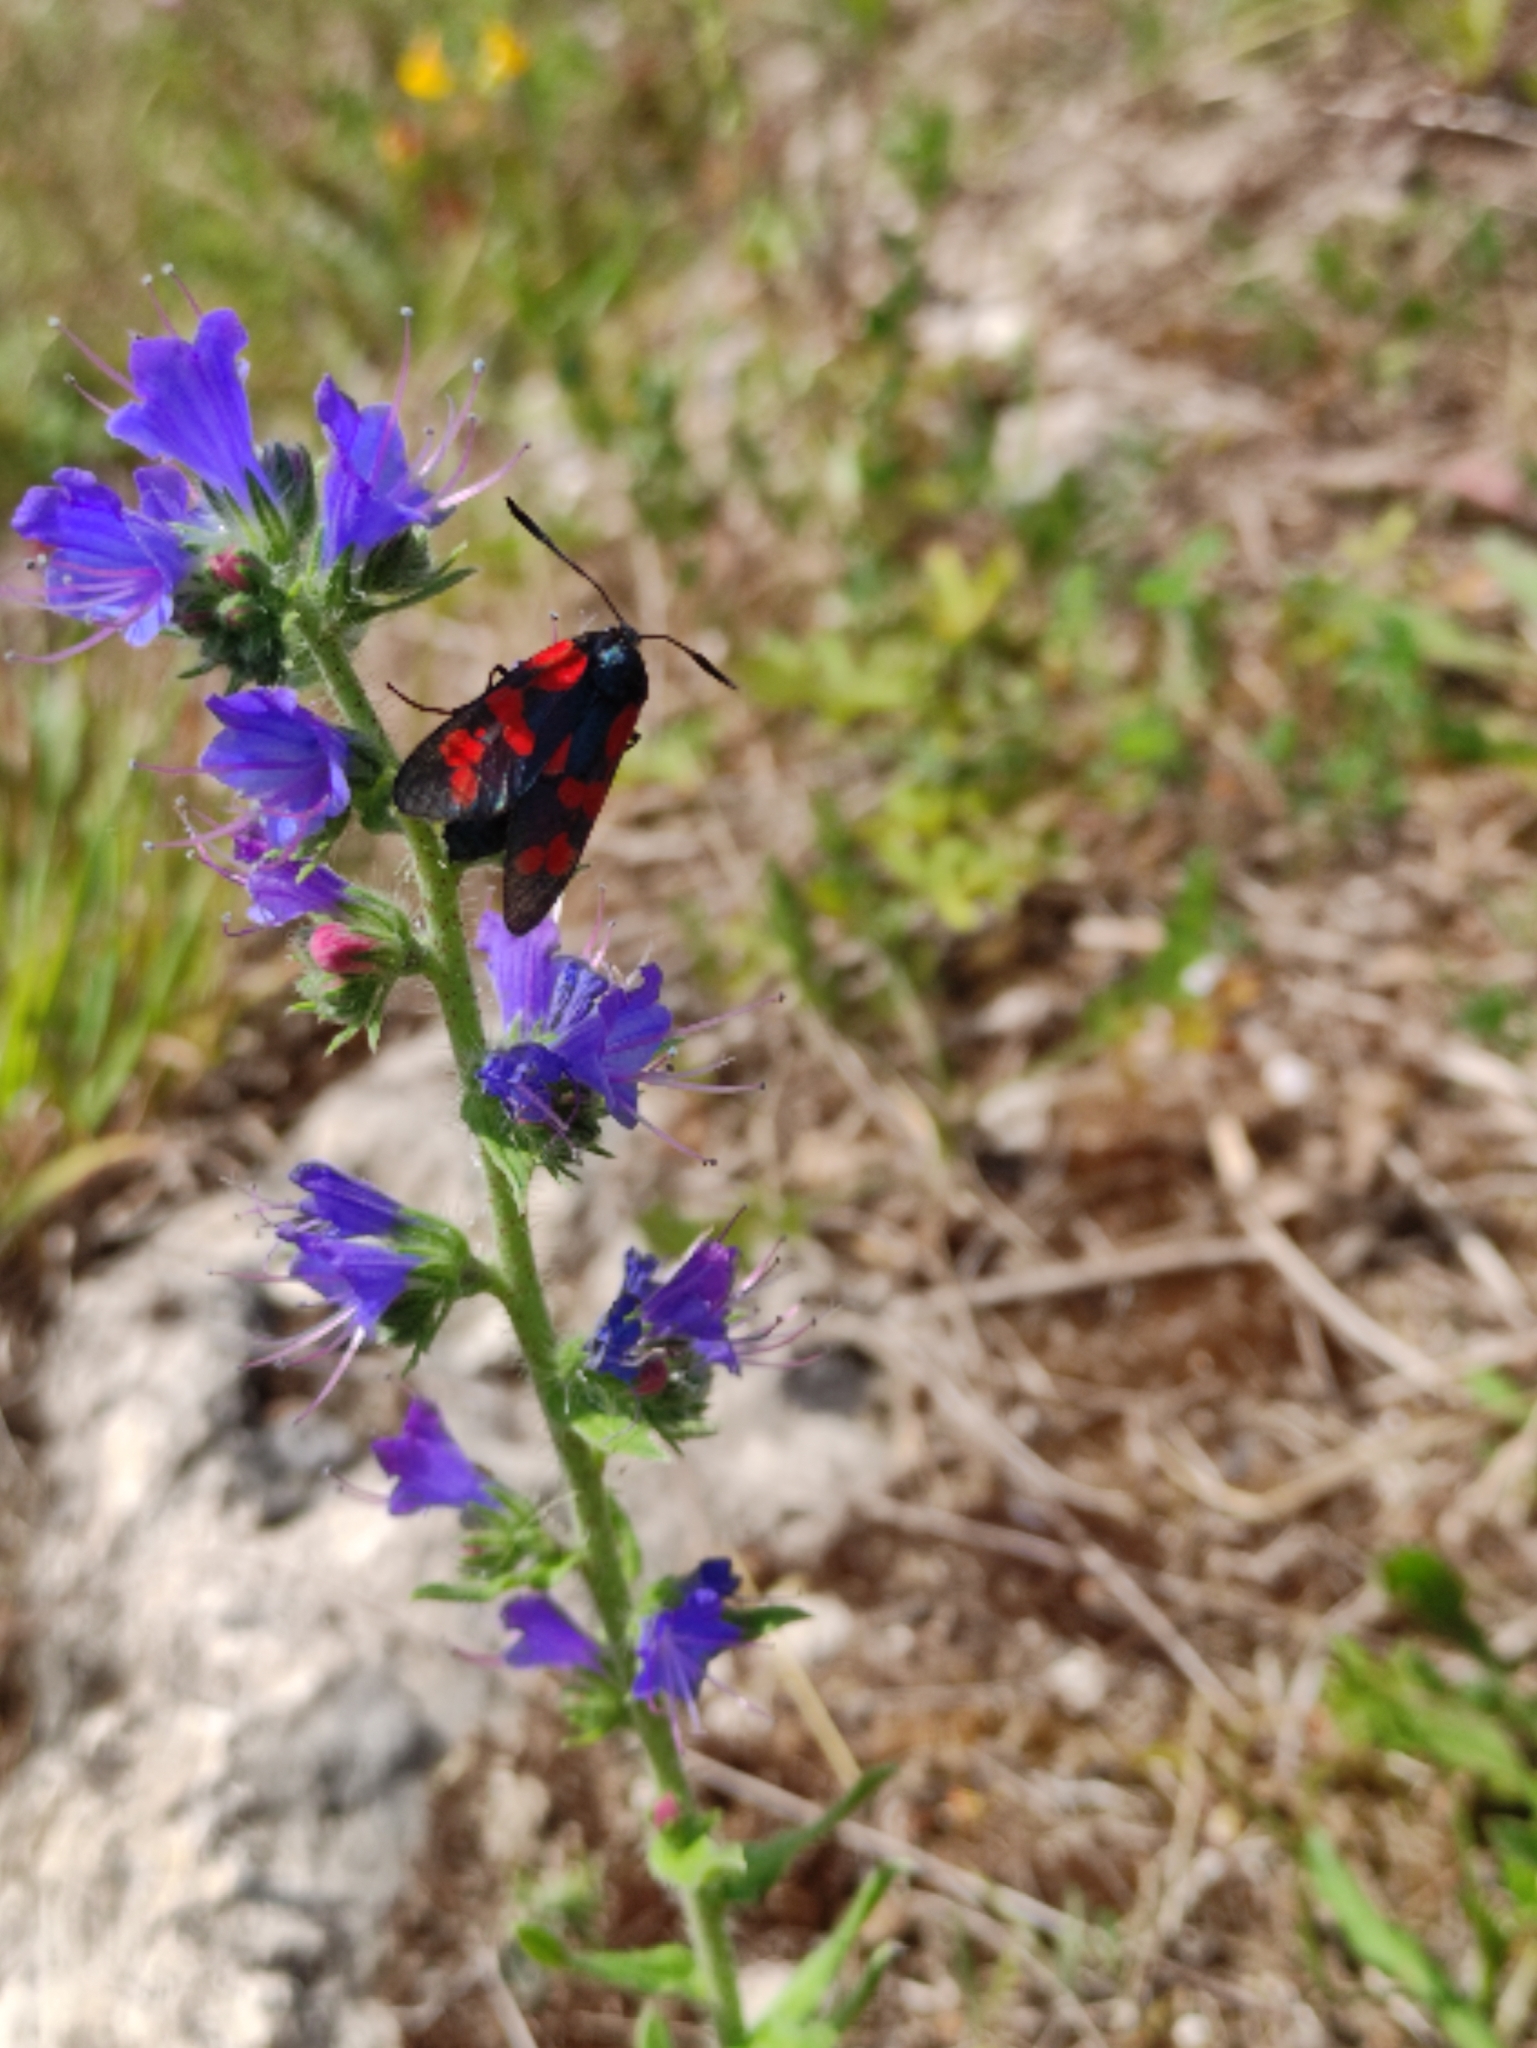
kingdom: Animalia
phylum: Arthropoda
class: Insecta
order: Lepidoptera
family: Zygaenidae
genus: Zygaena
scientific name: Zygaena filipendulae
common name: Six-spot burnet
